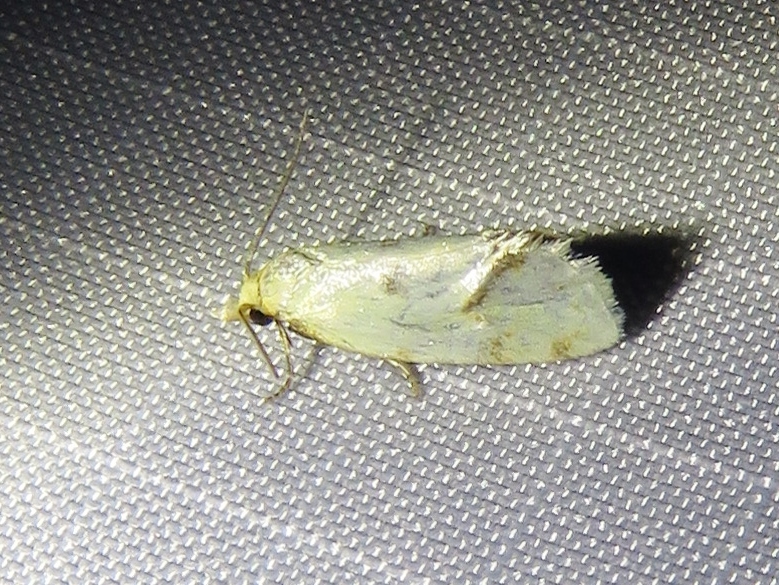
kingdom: Animalia
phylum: Arthropoda
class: Insecta
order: Lepidoptera
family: Tortricidae
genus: Agapeta
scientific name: Agapeta hamana
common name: Common yellow conch
